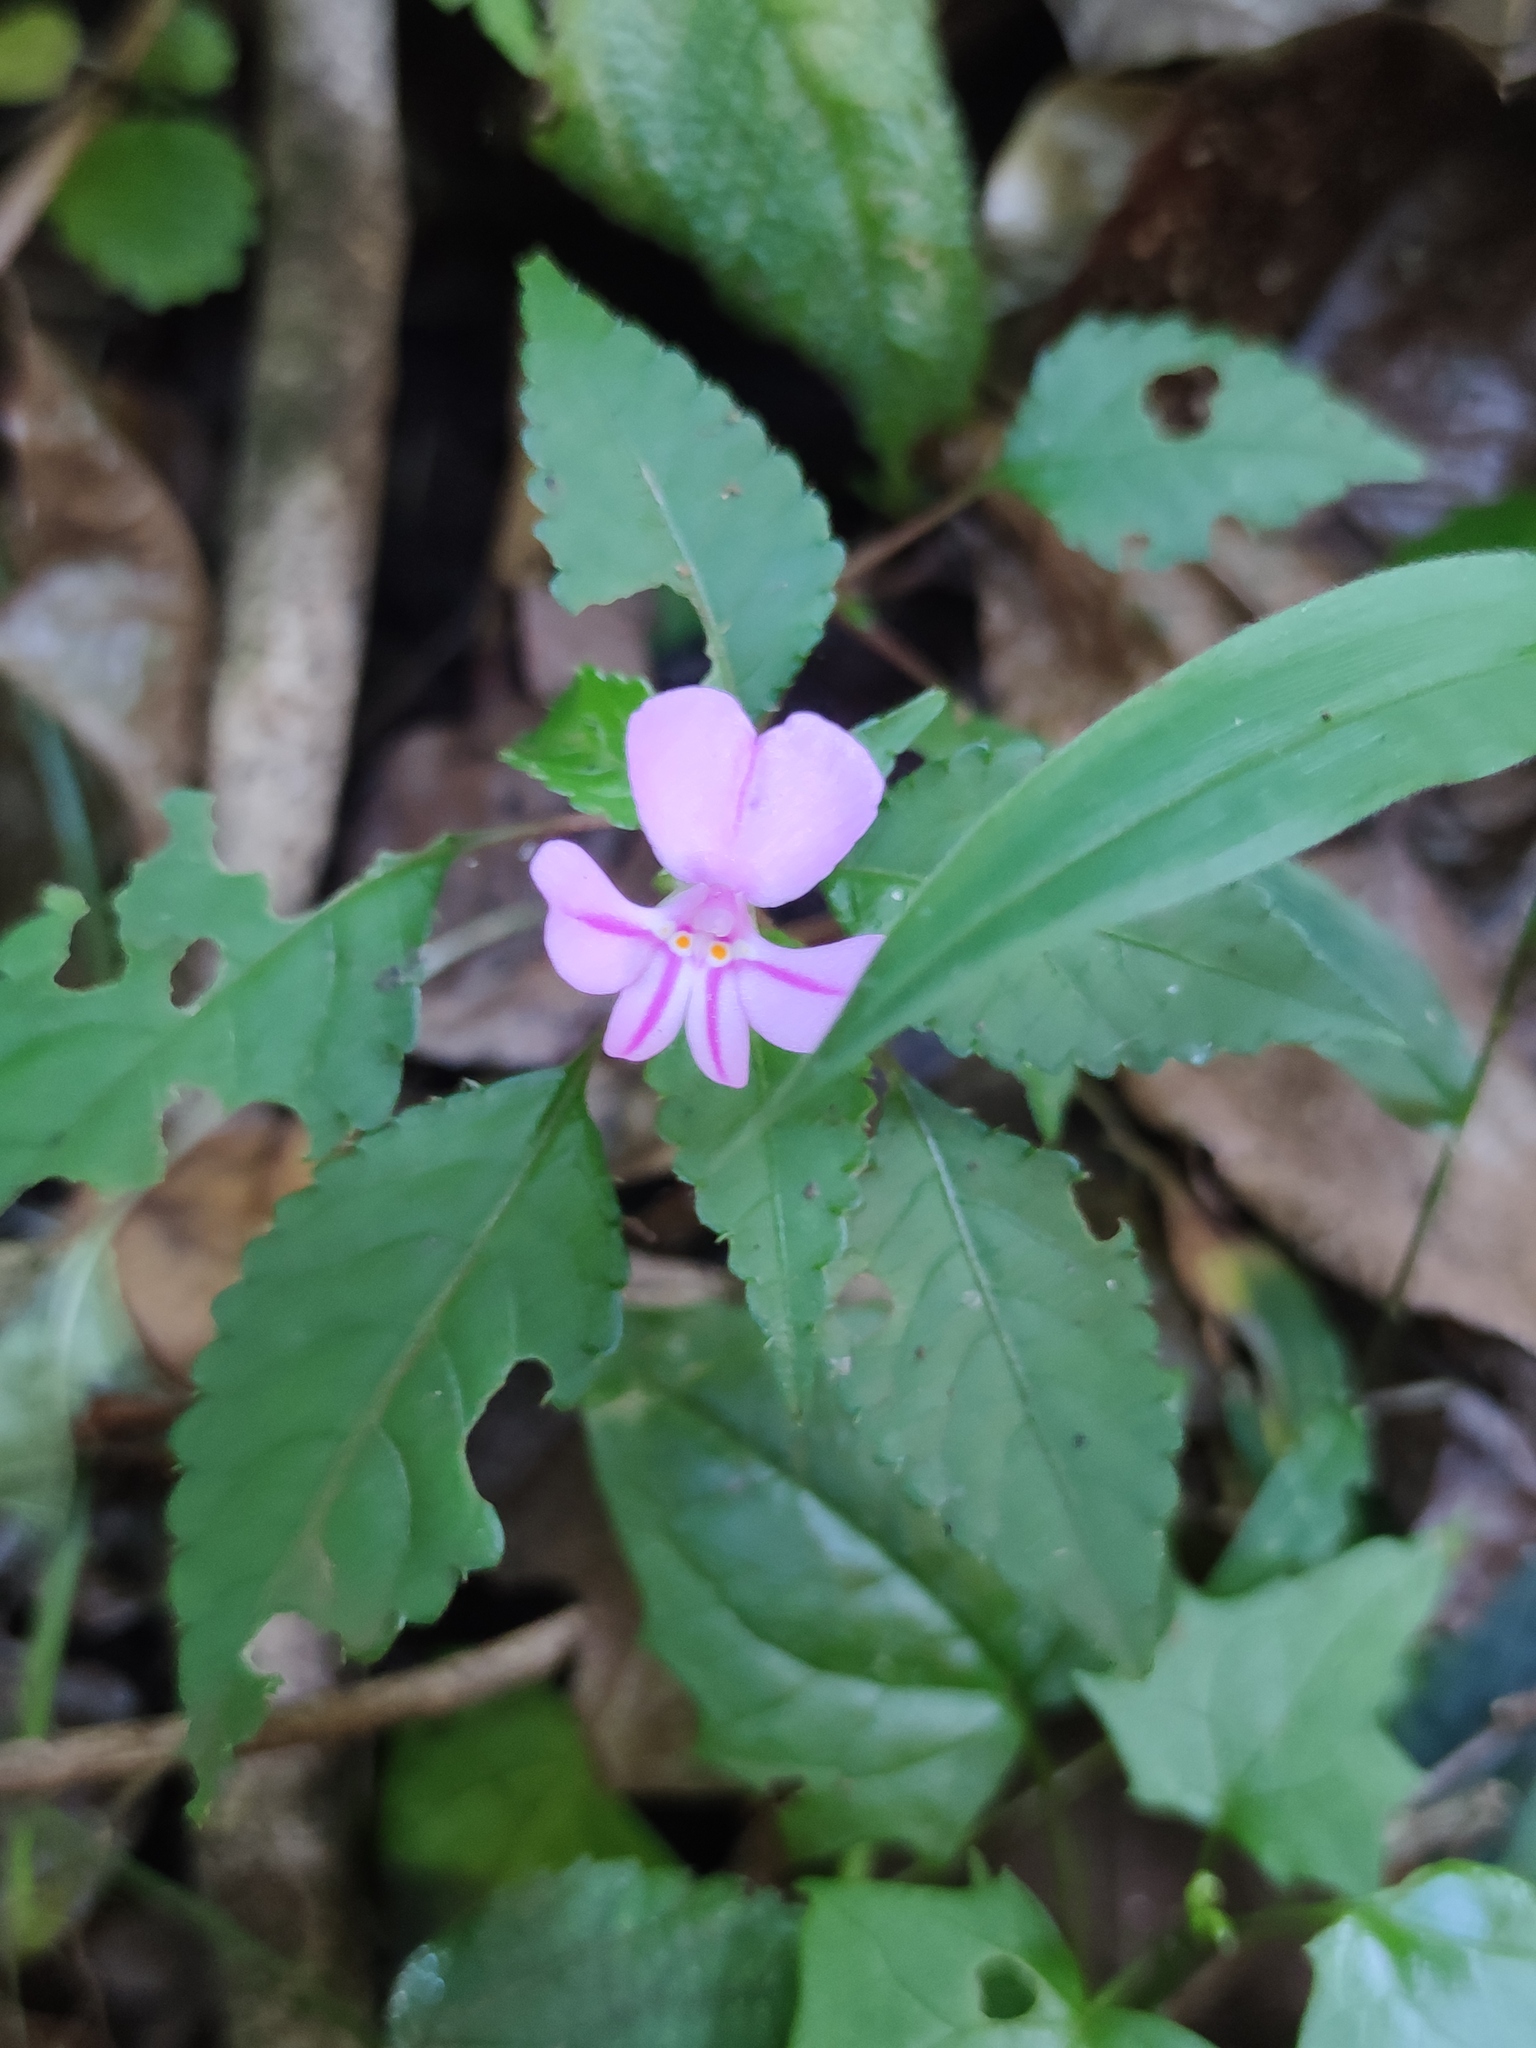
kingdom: Plantae
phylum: Tracheophyta
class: Magnoliopsida
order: Ericales
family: Balsaminaceae
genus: Impatiens
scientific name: Impatiens pseudoviola
